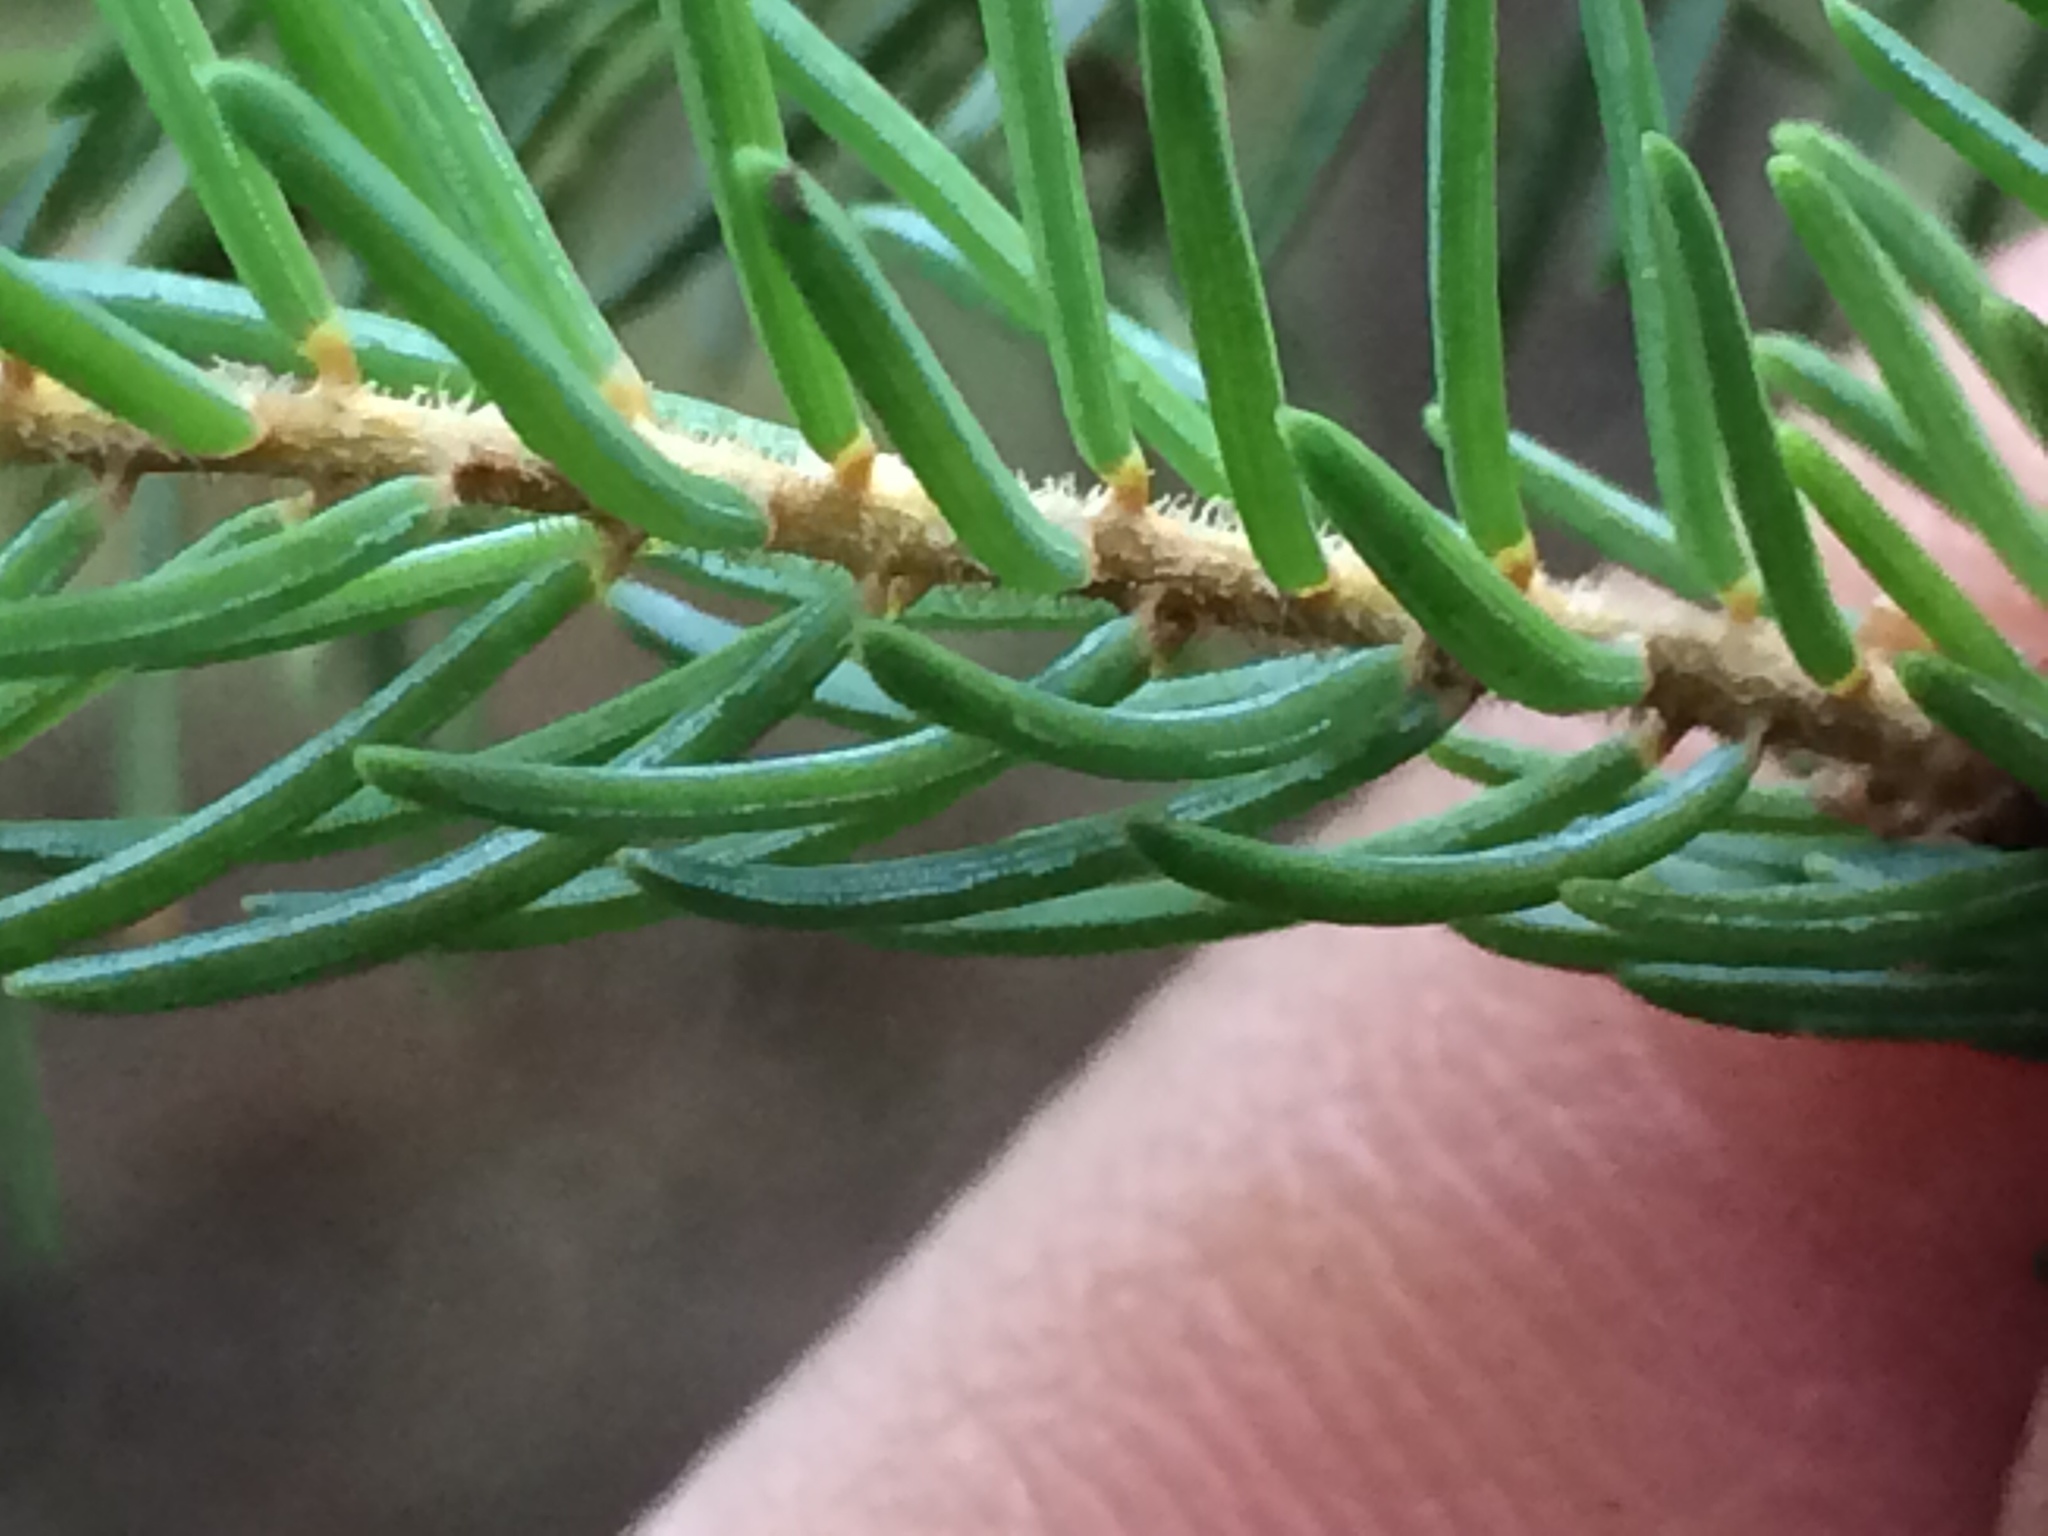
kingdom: Plantae
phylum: Tracheophyta
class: Pinopsida
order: Pinales
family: Pinaceae
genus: Picea
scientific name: Picea mariana
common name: Black spruce
